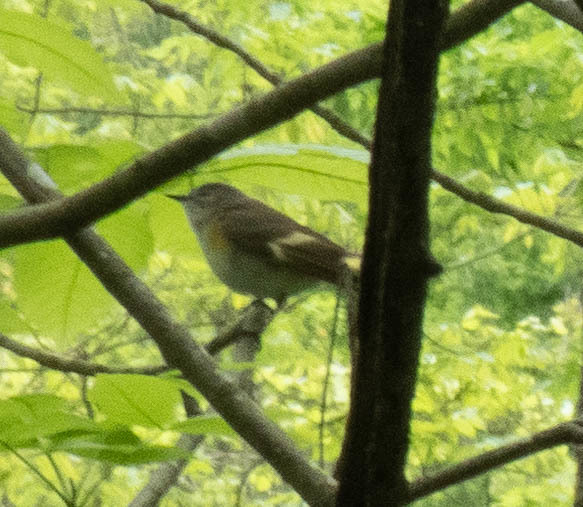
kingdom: Animalia
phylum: Chordata
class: Aves
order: Passeriformes
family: Parulidae
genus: Setophaga
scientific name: Setophaga ruticilla
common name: American redstart
